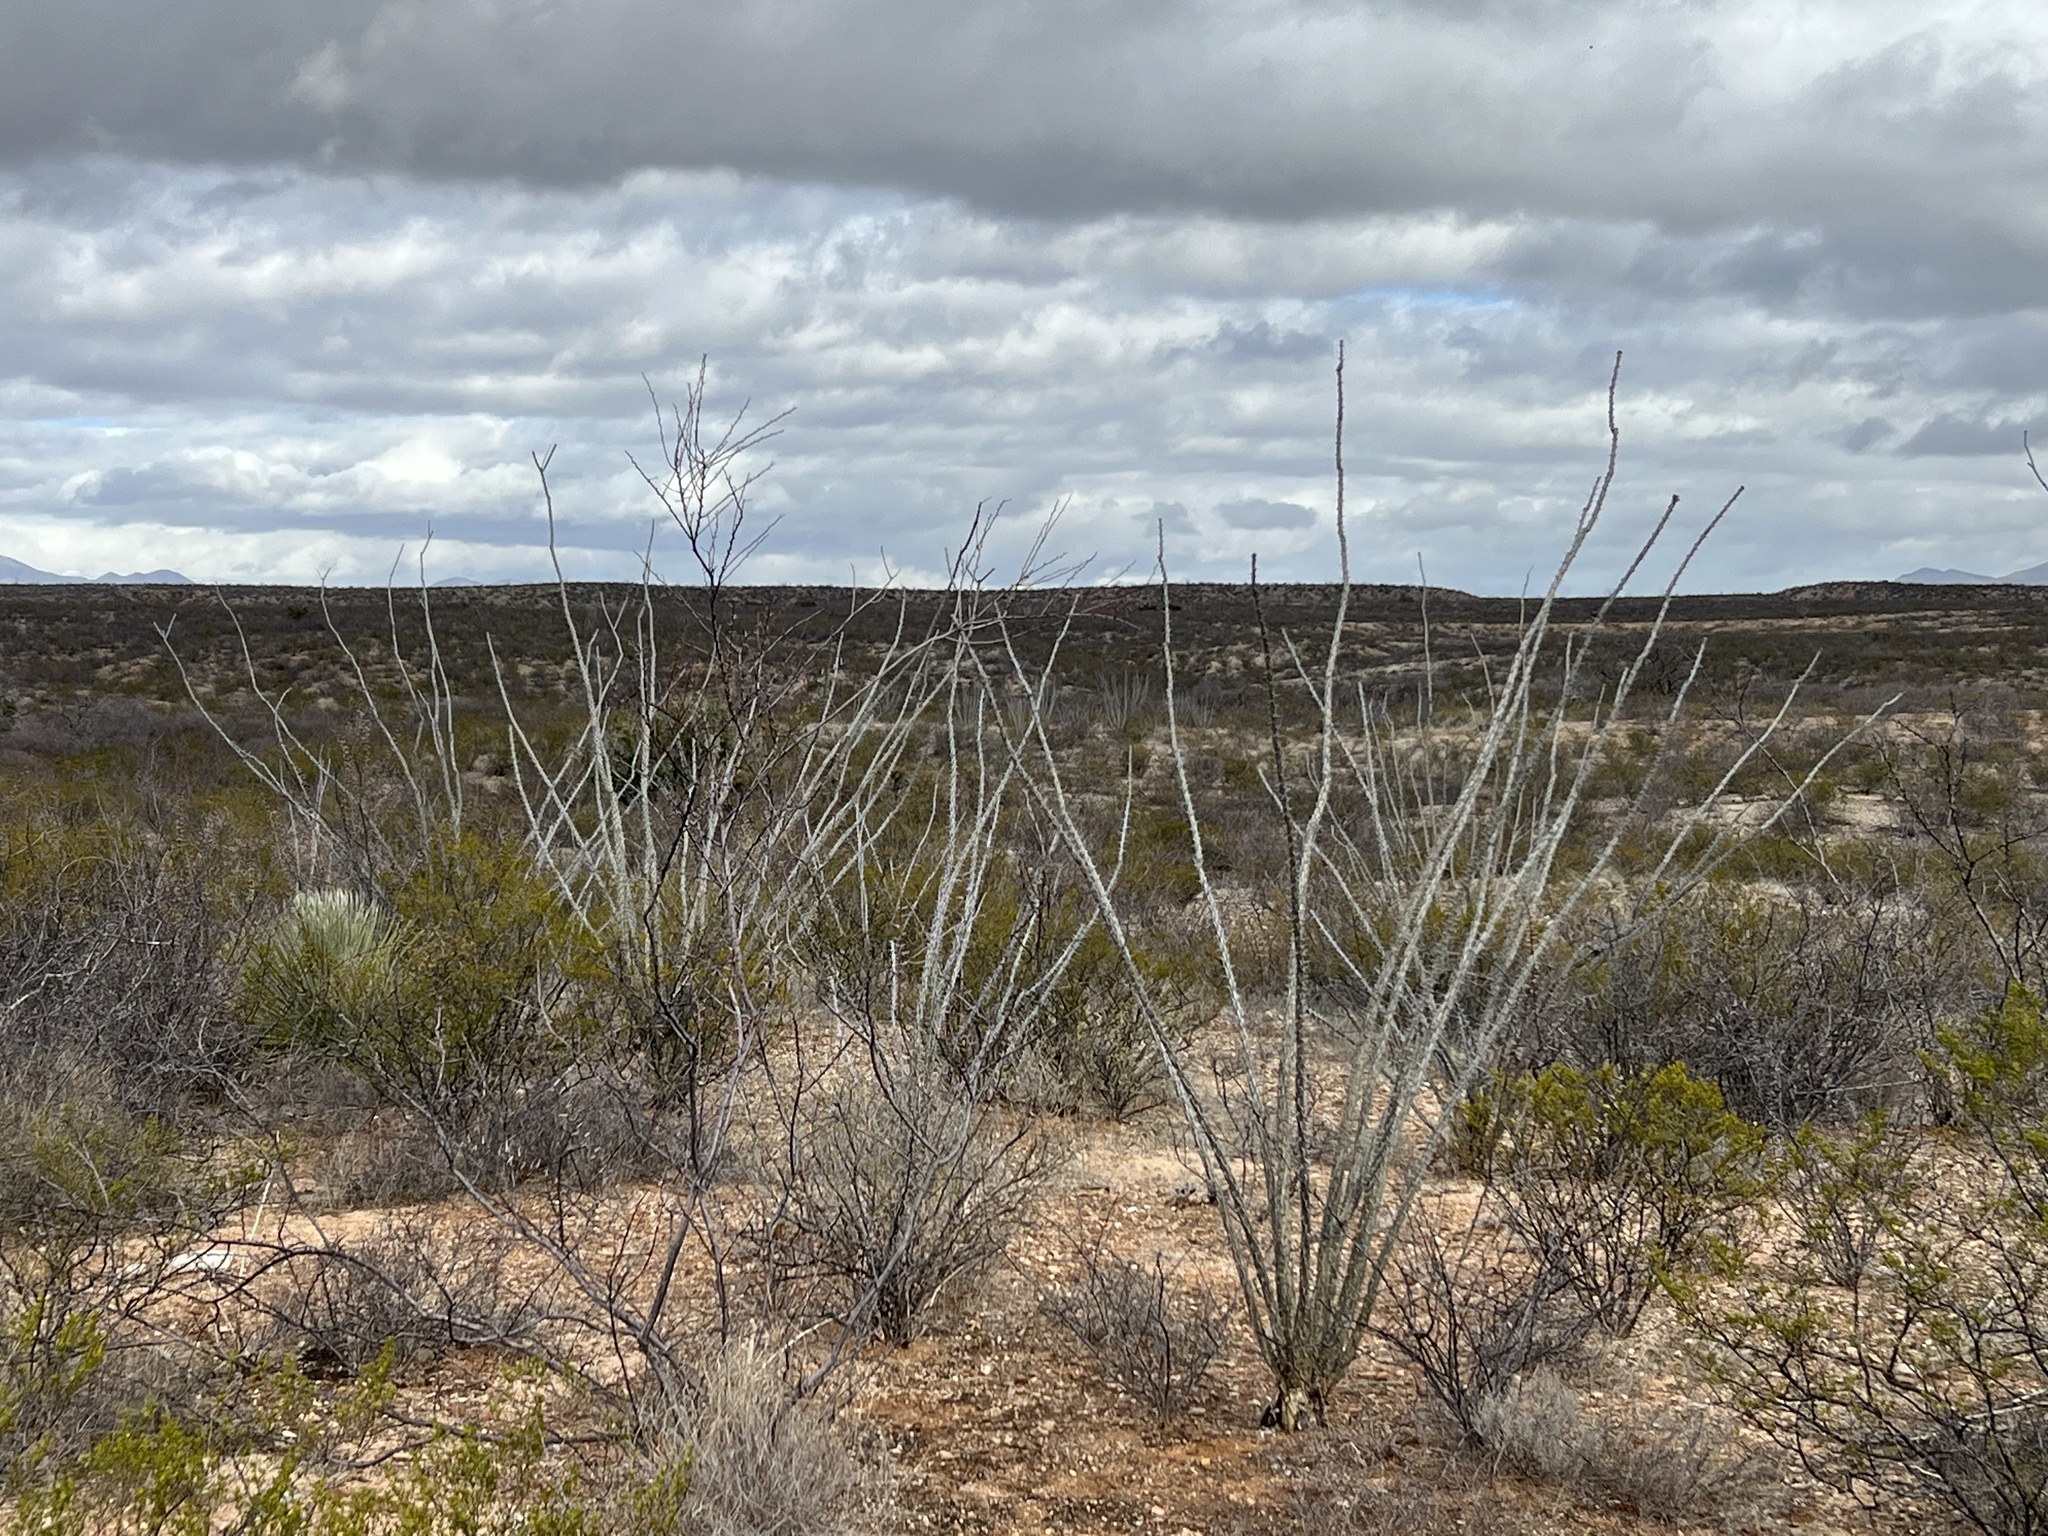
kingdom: Plantae
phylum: Tracheophyta
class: Magnoliopsida
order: Ericales
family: Fouquieriaceae
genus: Fouquieria
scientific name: Fouquieria splendens
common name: Vine-cactus
